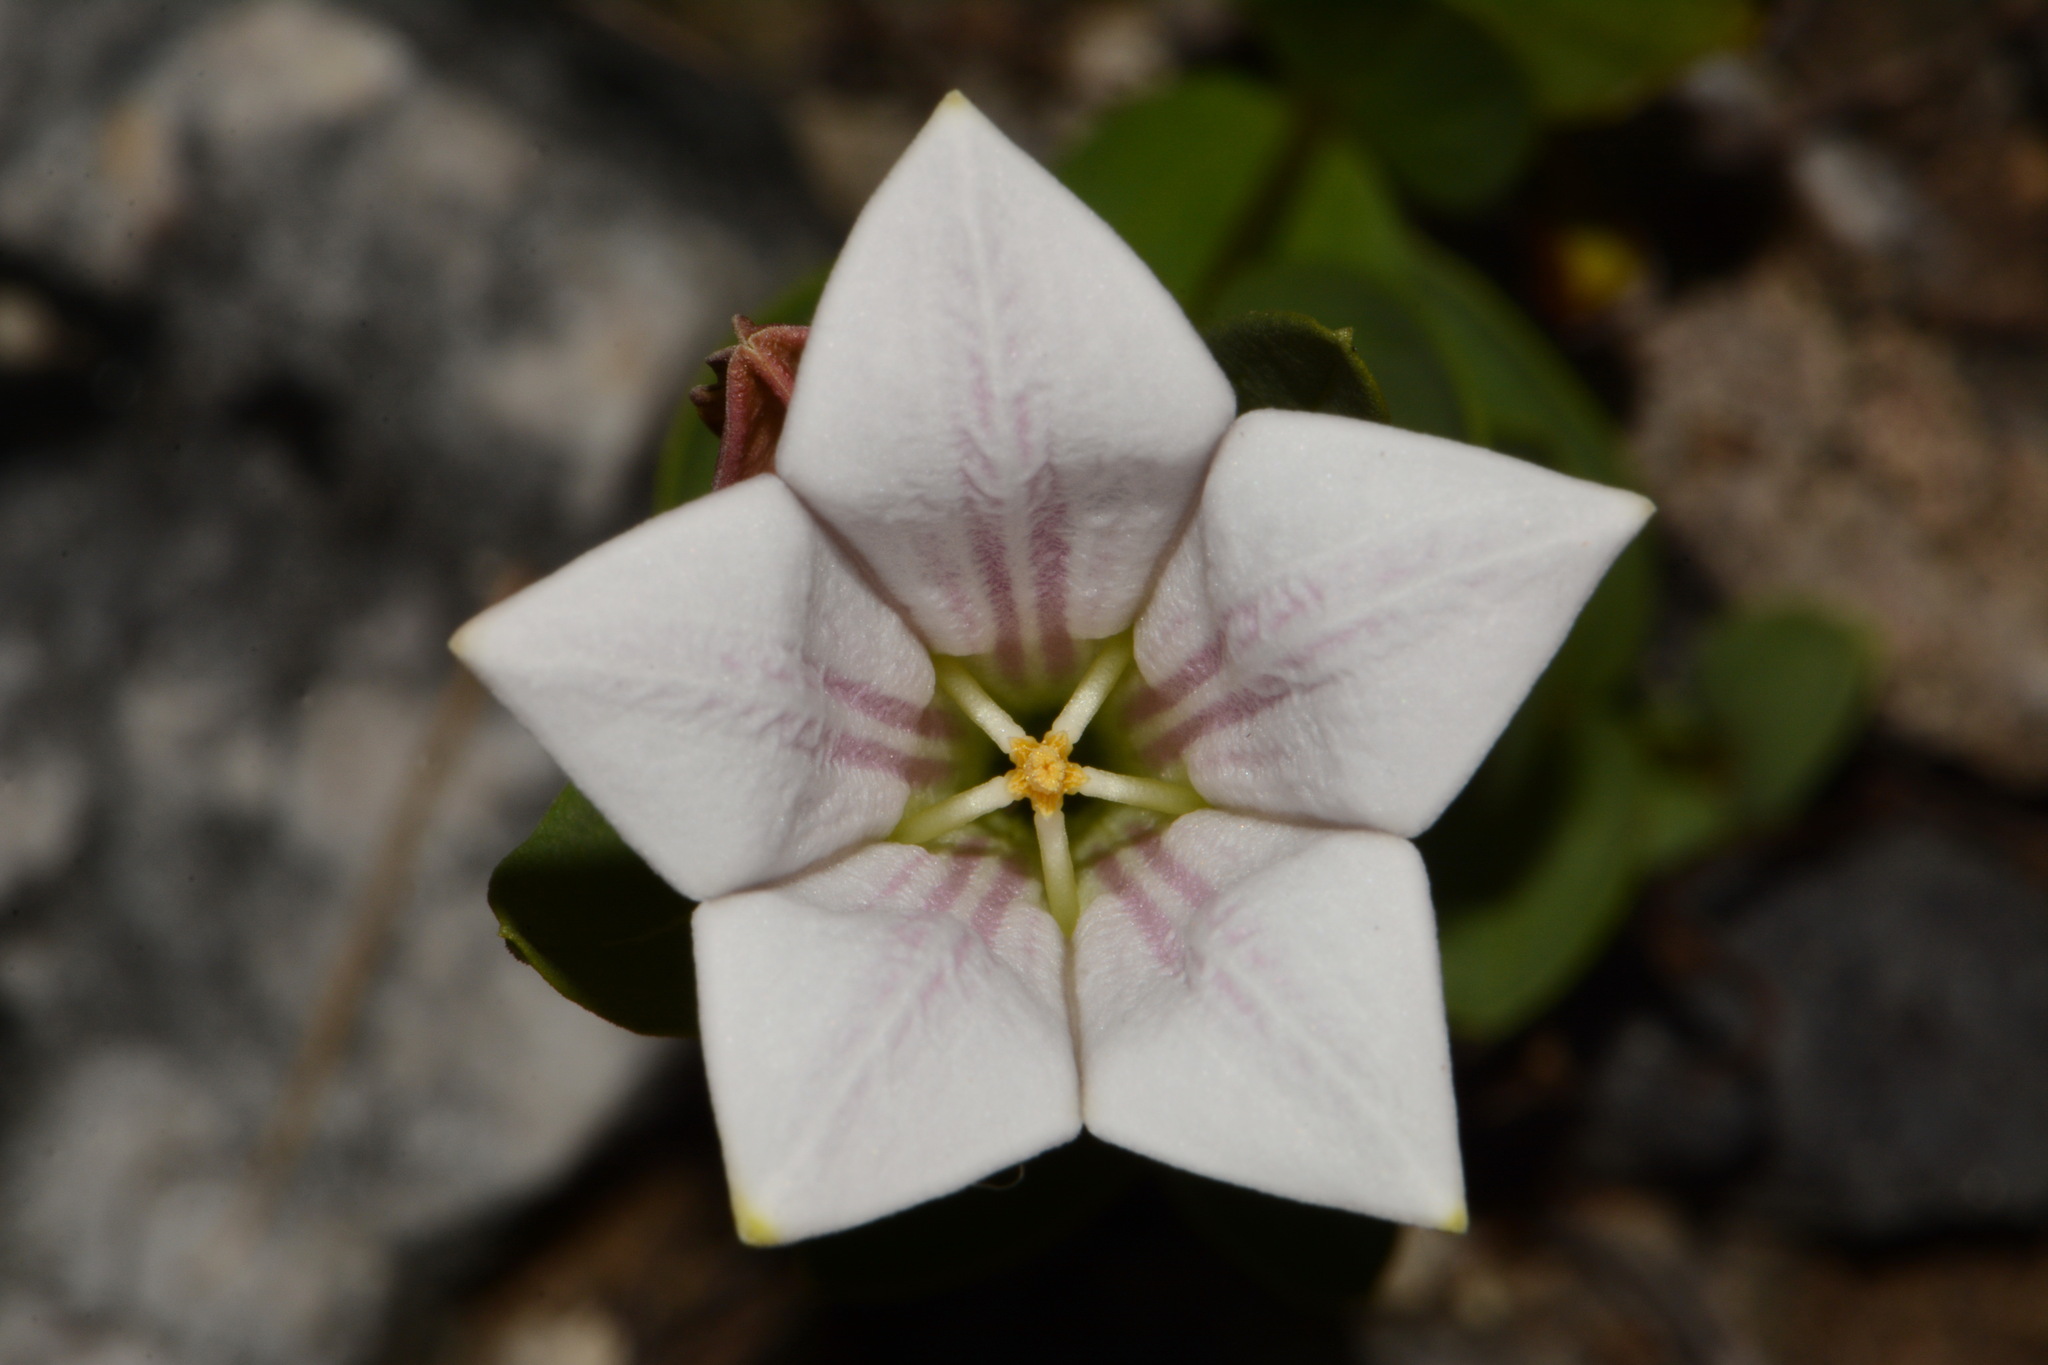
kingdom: Plantae
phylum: Tracheophyta
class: Magnoliopsida
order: Gentianales
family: Loganiaceae
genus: Spigelia
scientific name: Spigelia alabamensis
